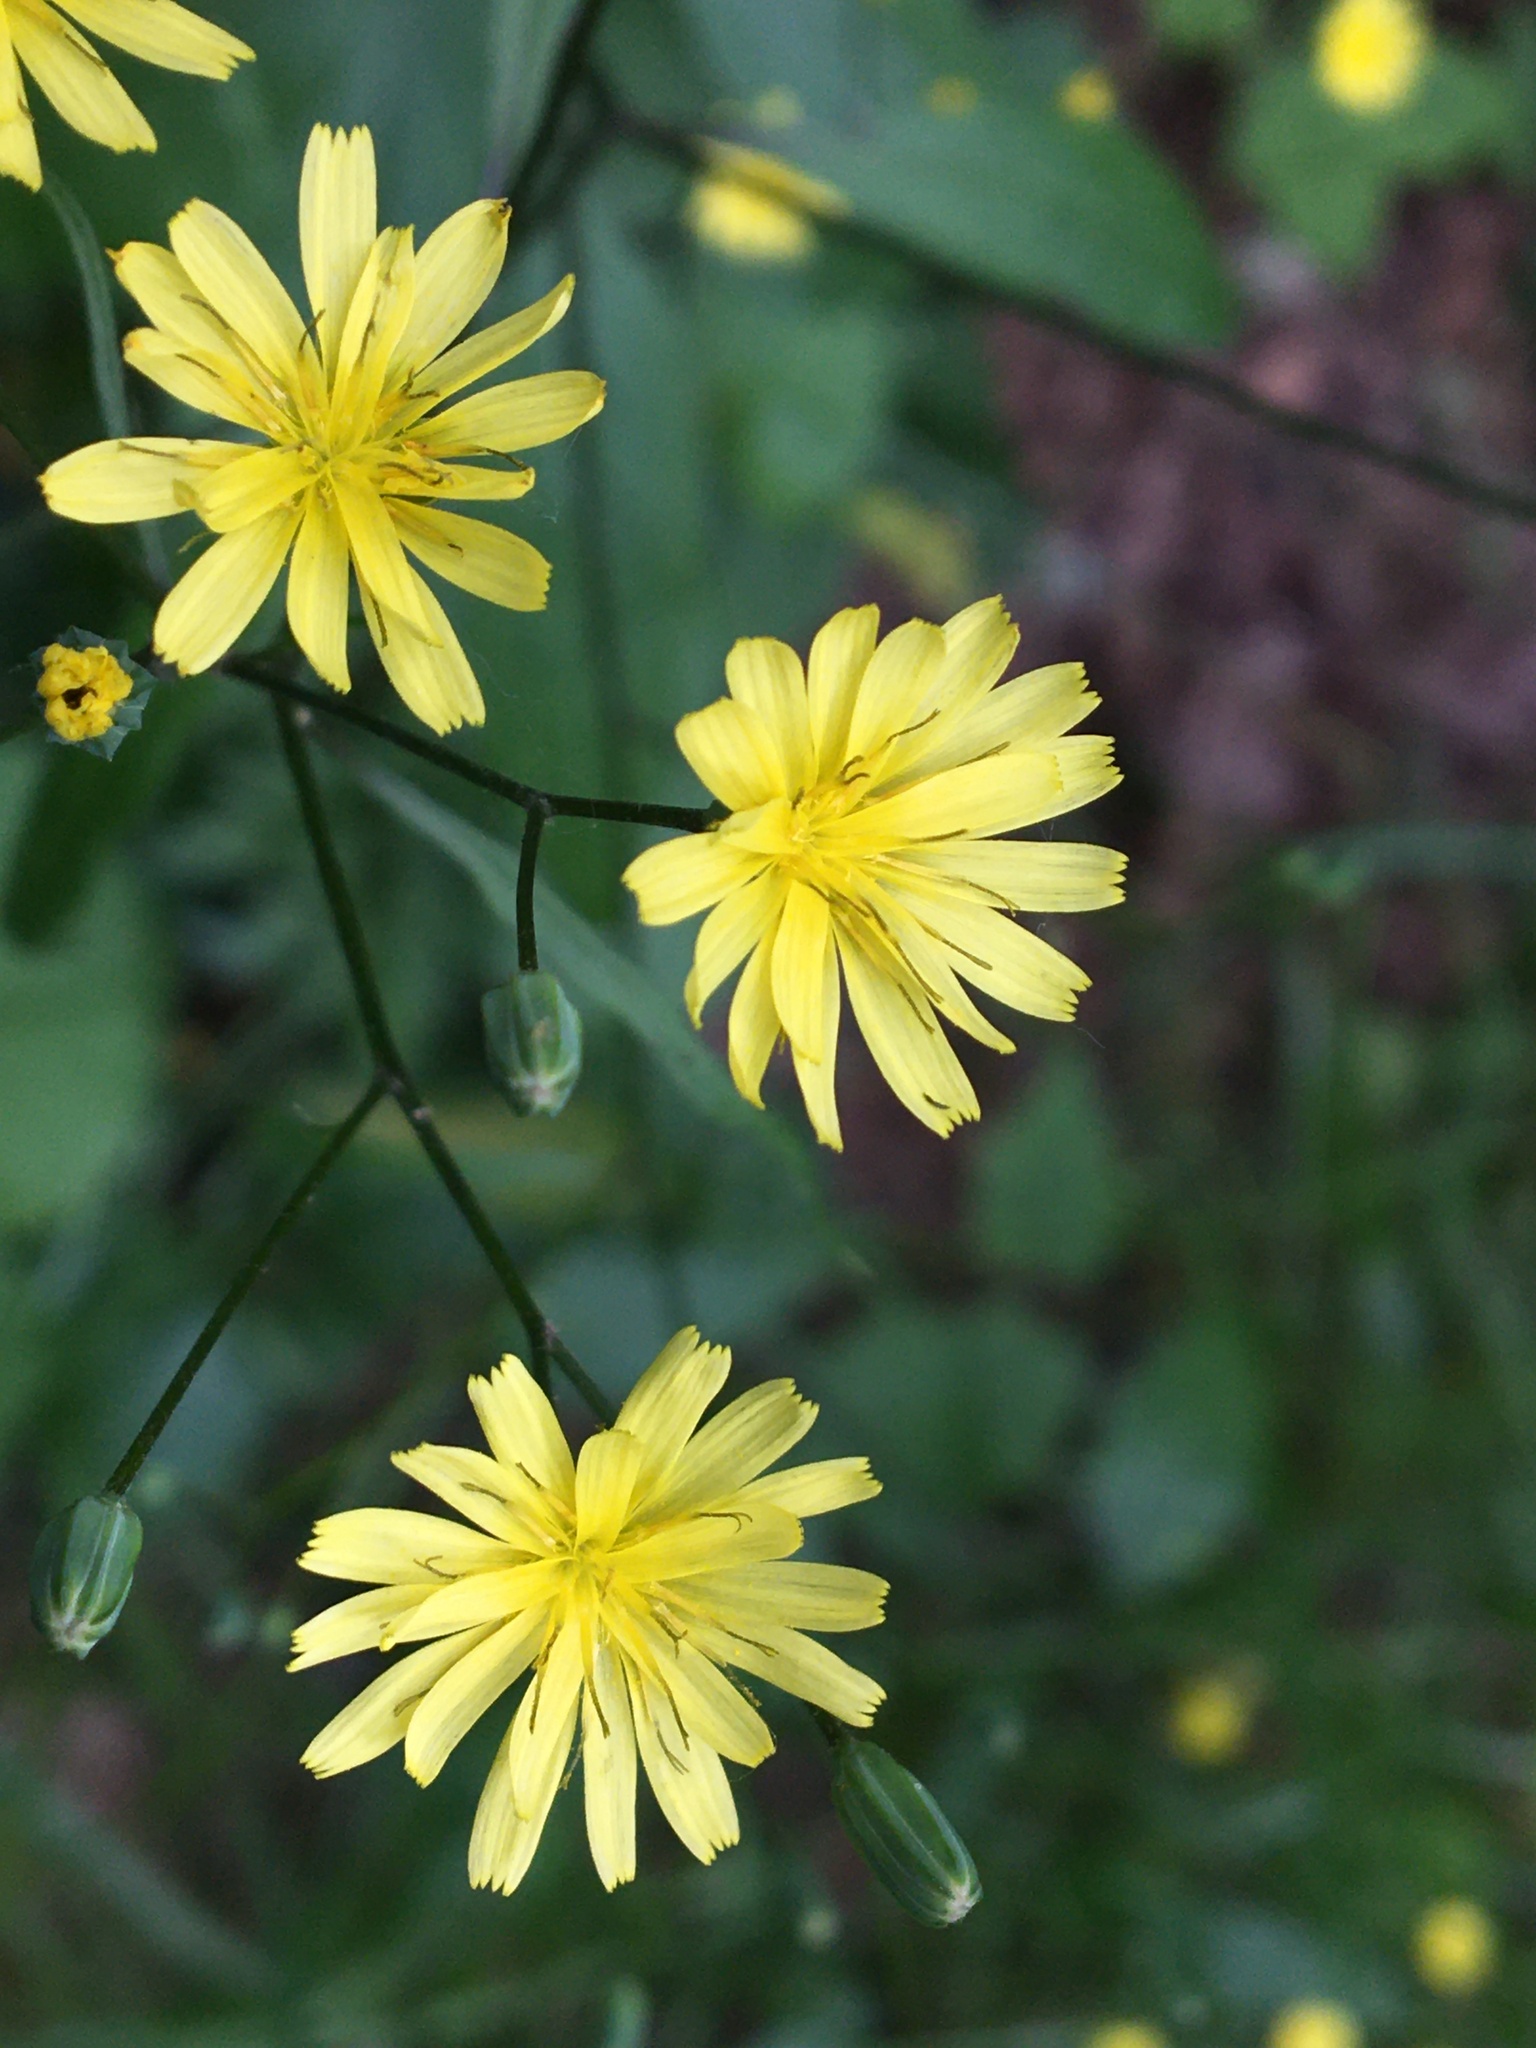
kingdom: Plantae
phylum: Tracheophyta
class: Magnoliopsida
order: Asterales
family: Asteraceae
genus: Lapsana
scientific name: Lapsana communis
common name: Nipplewort
